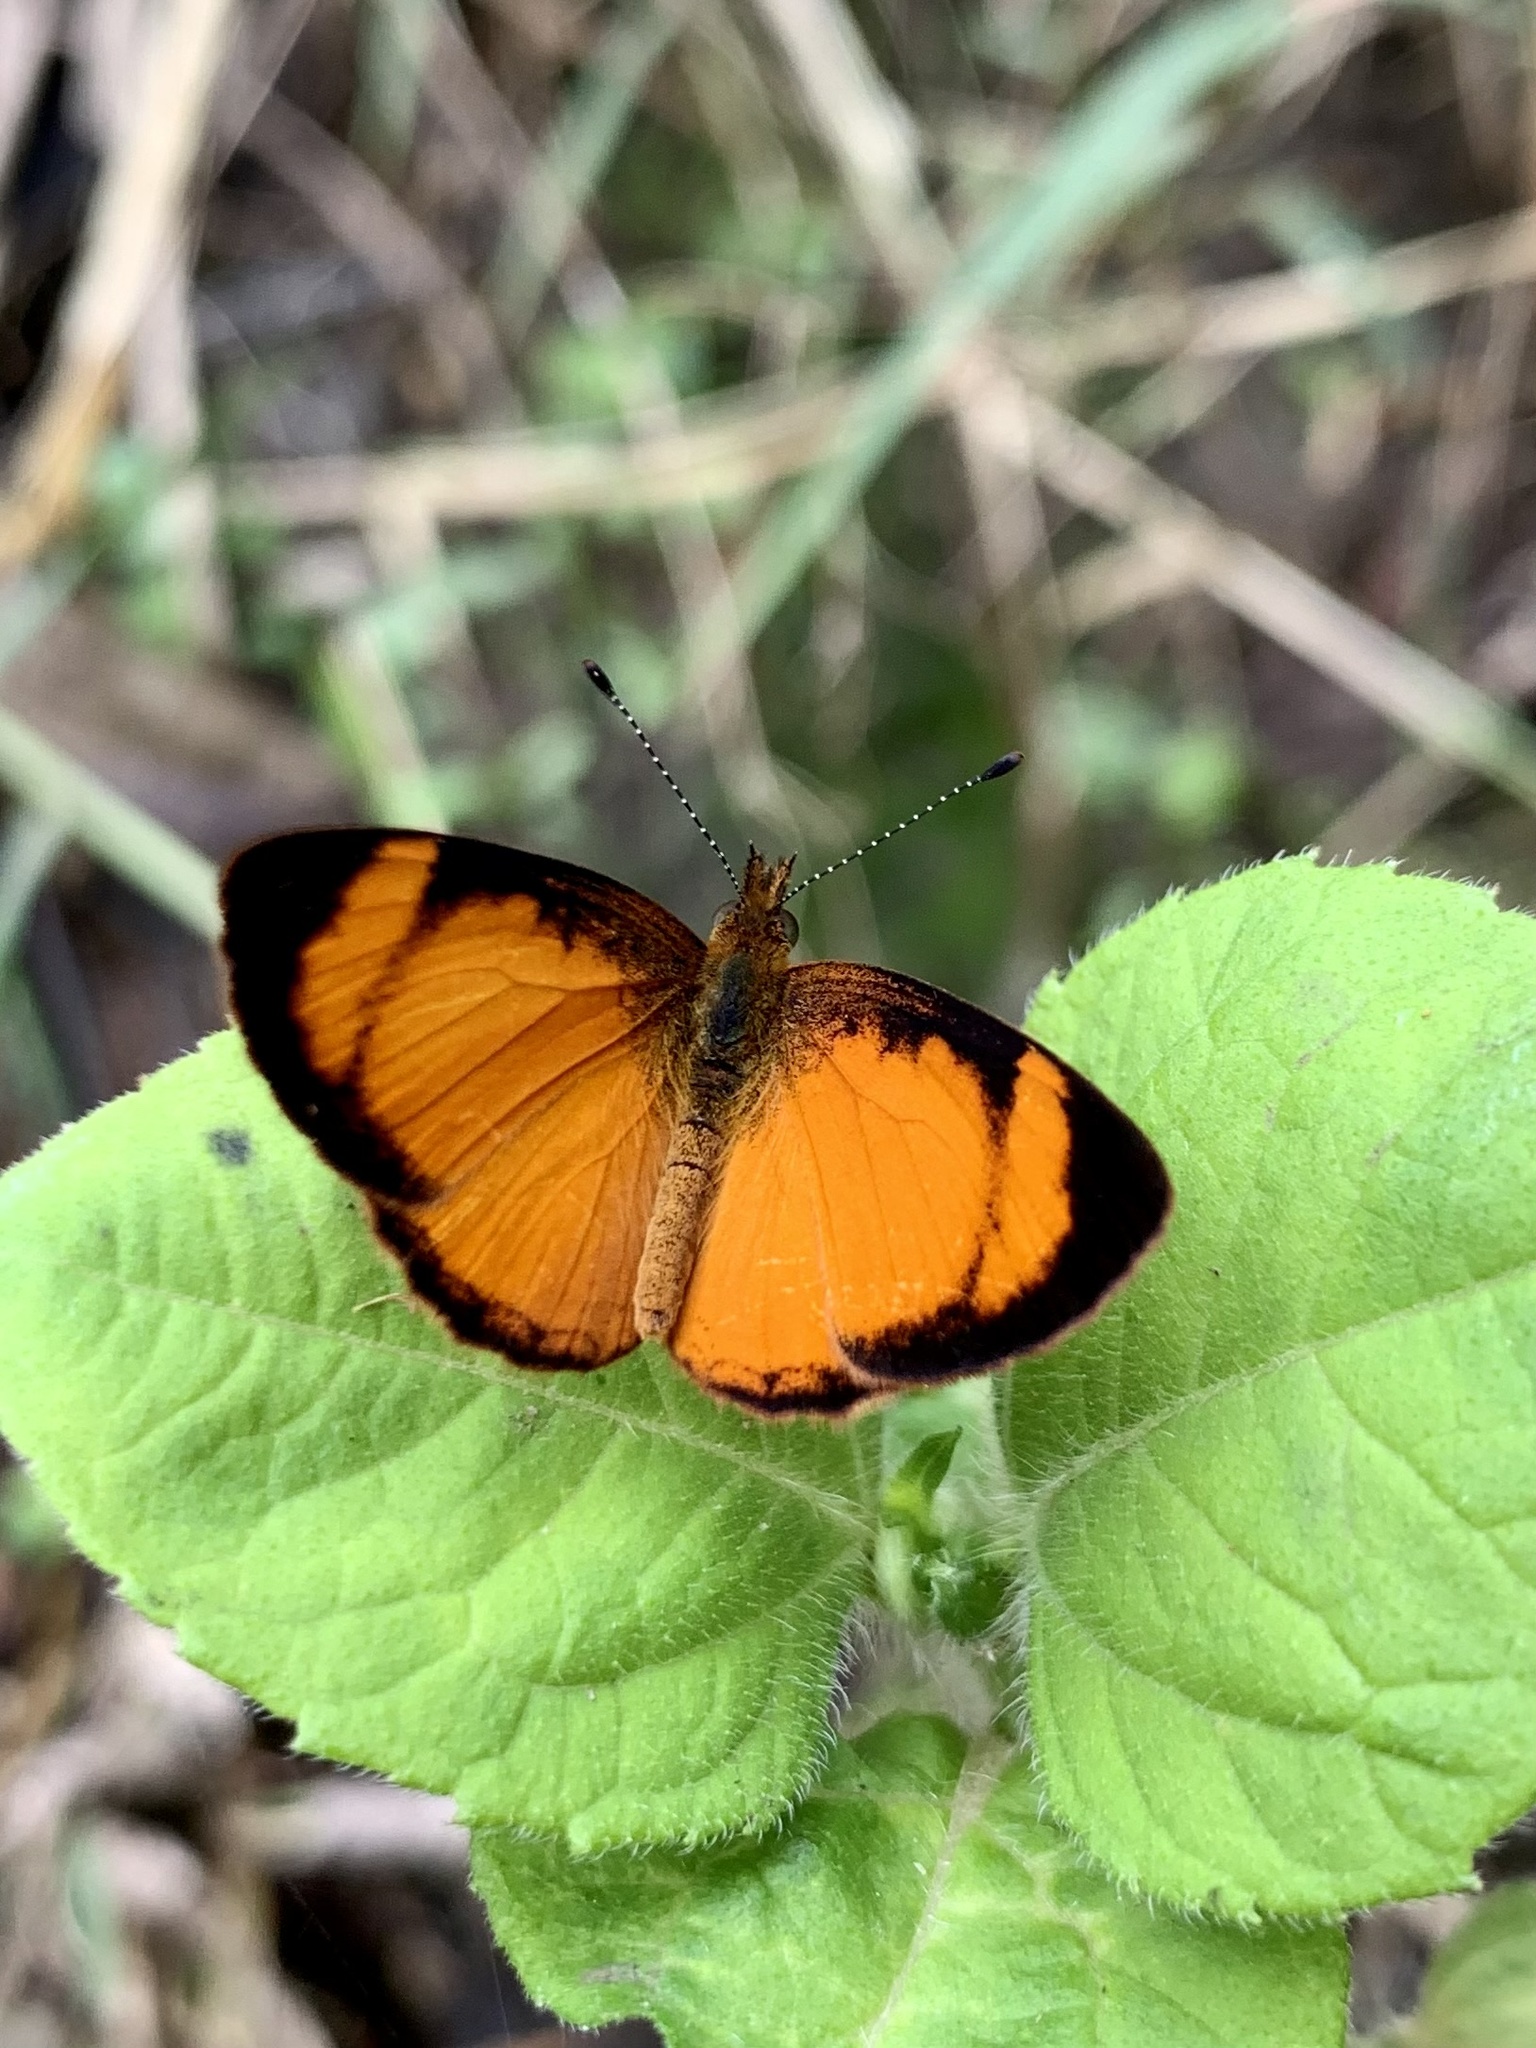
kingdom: Animalia
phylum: Arthropoda
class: Insecta
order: Lepidoptera
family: Nymphalidae
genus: Tegosa
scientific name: Tegosa anieta
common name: Black-bordered crescent
